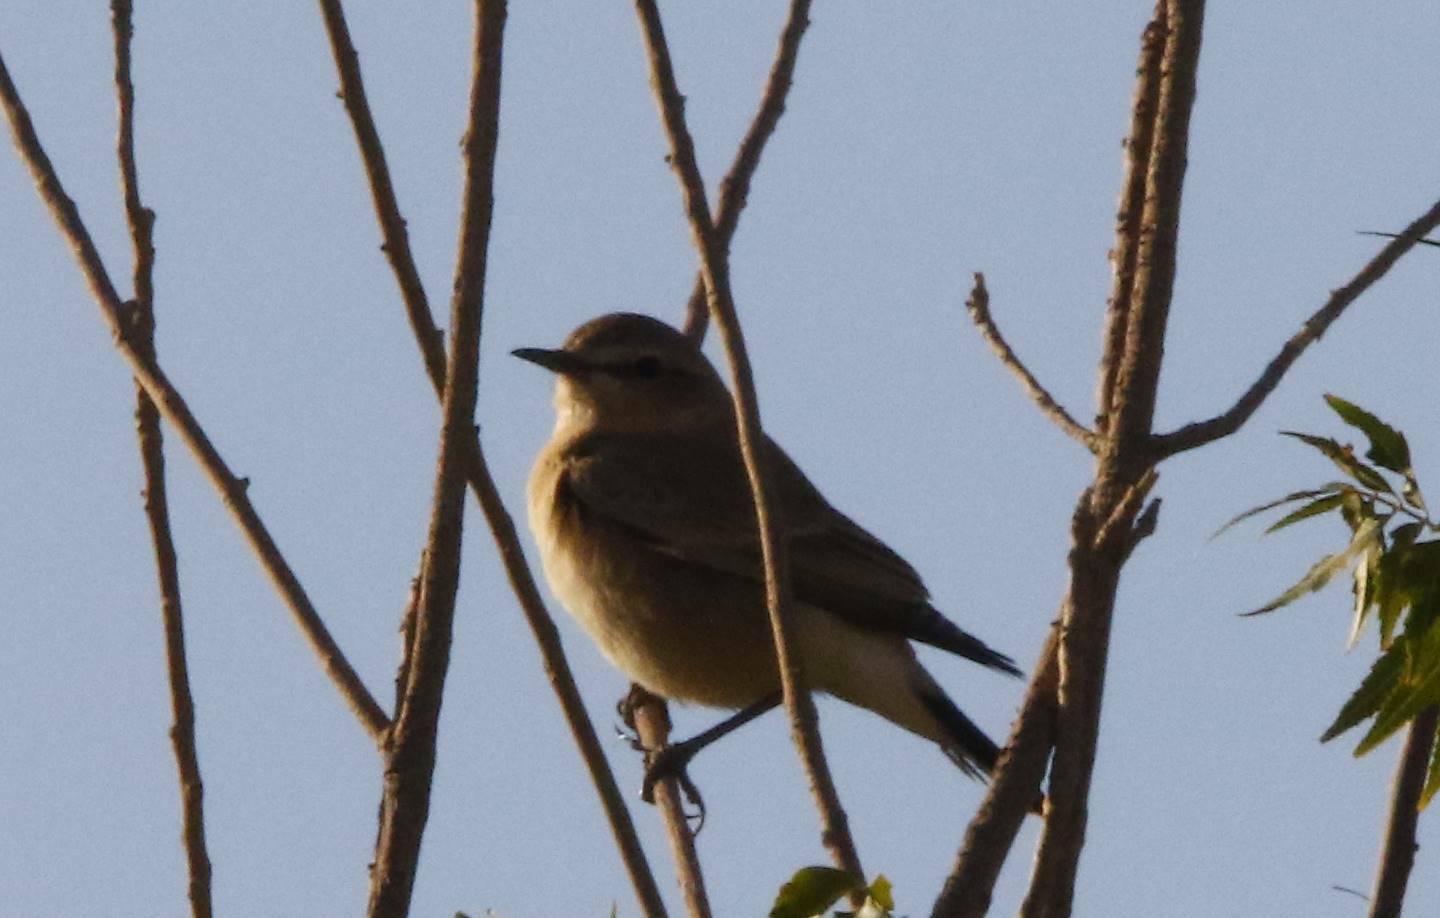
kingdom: Animalia
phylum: Chordata
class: Aves
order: Passeriformes
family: Muscicapidae
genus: Oenanthe
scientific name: Oenanthe isabellina
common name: Isabelline wheatear
